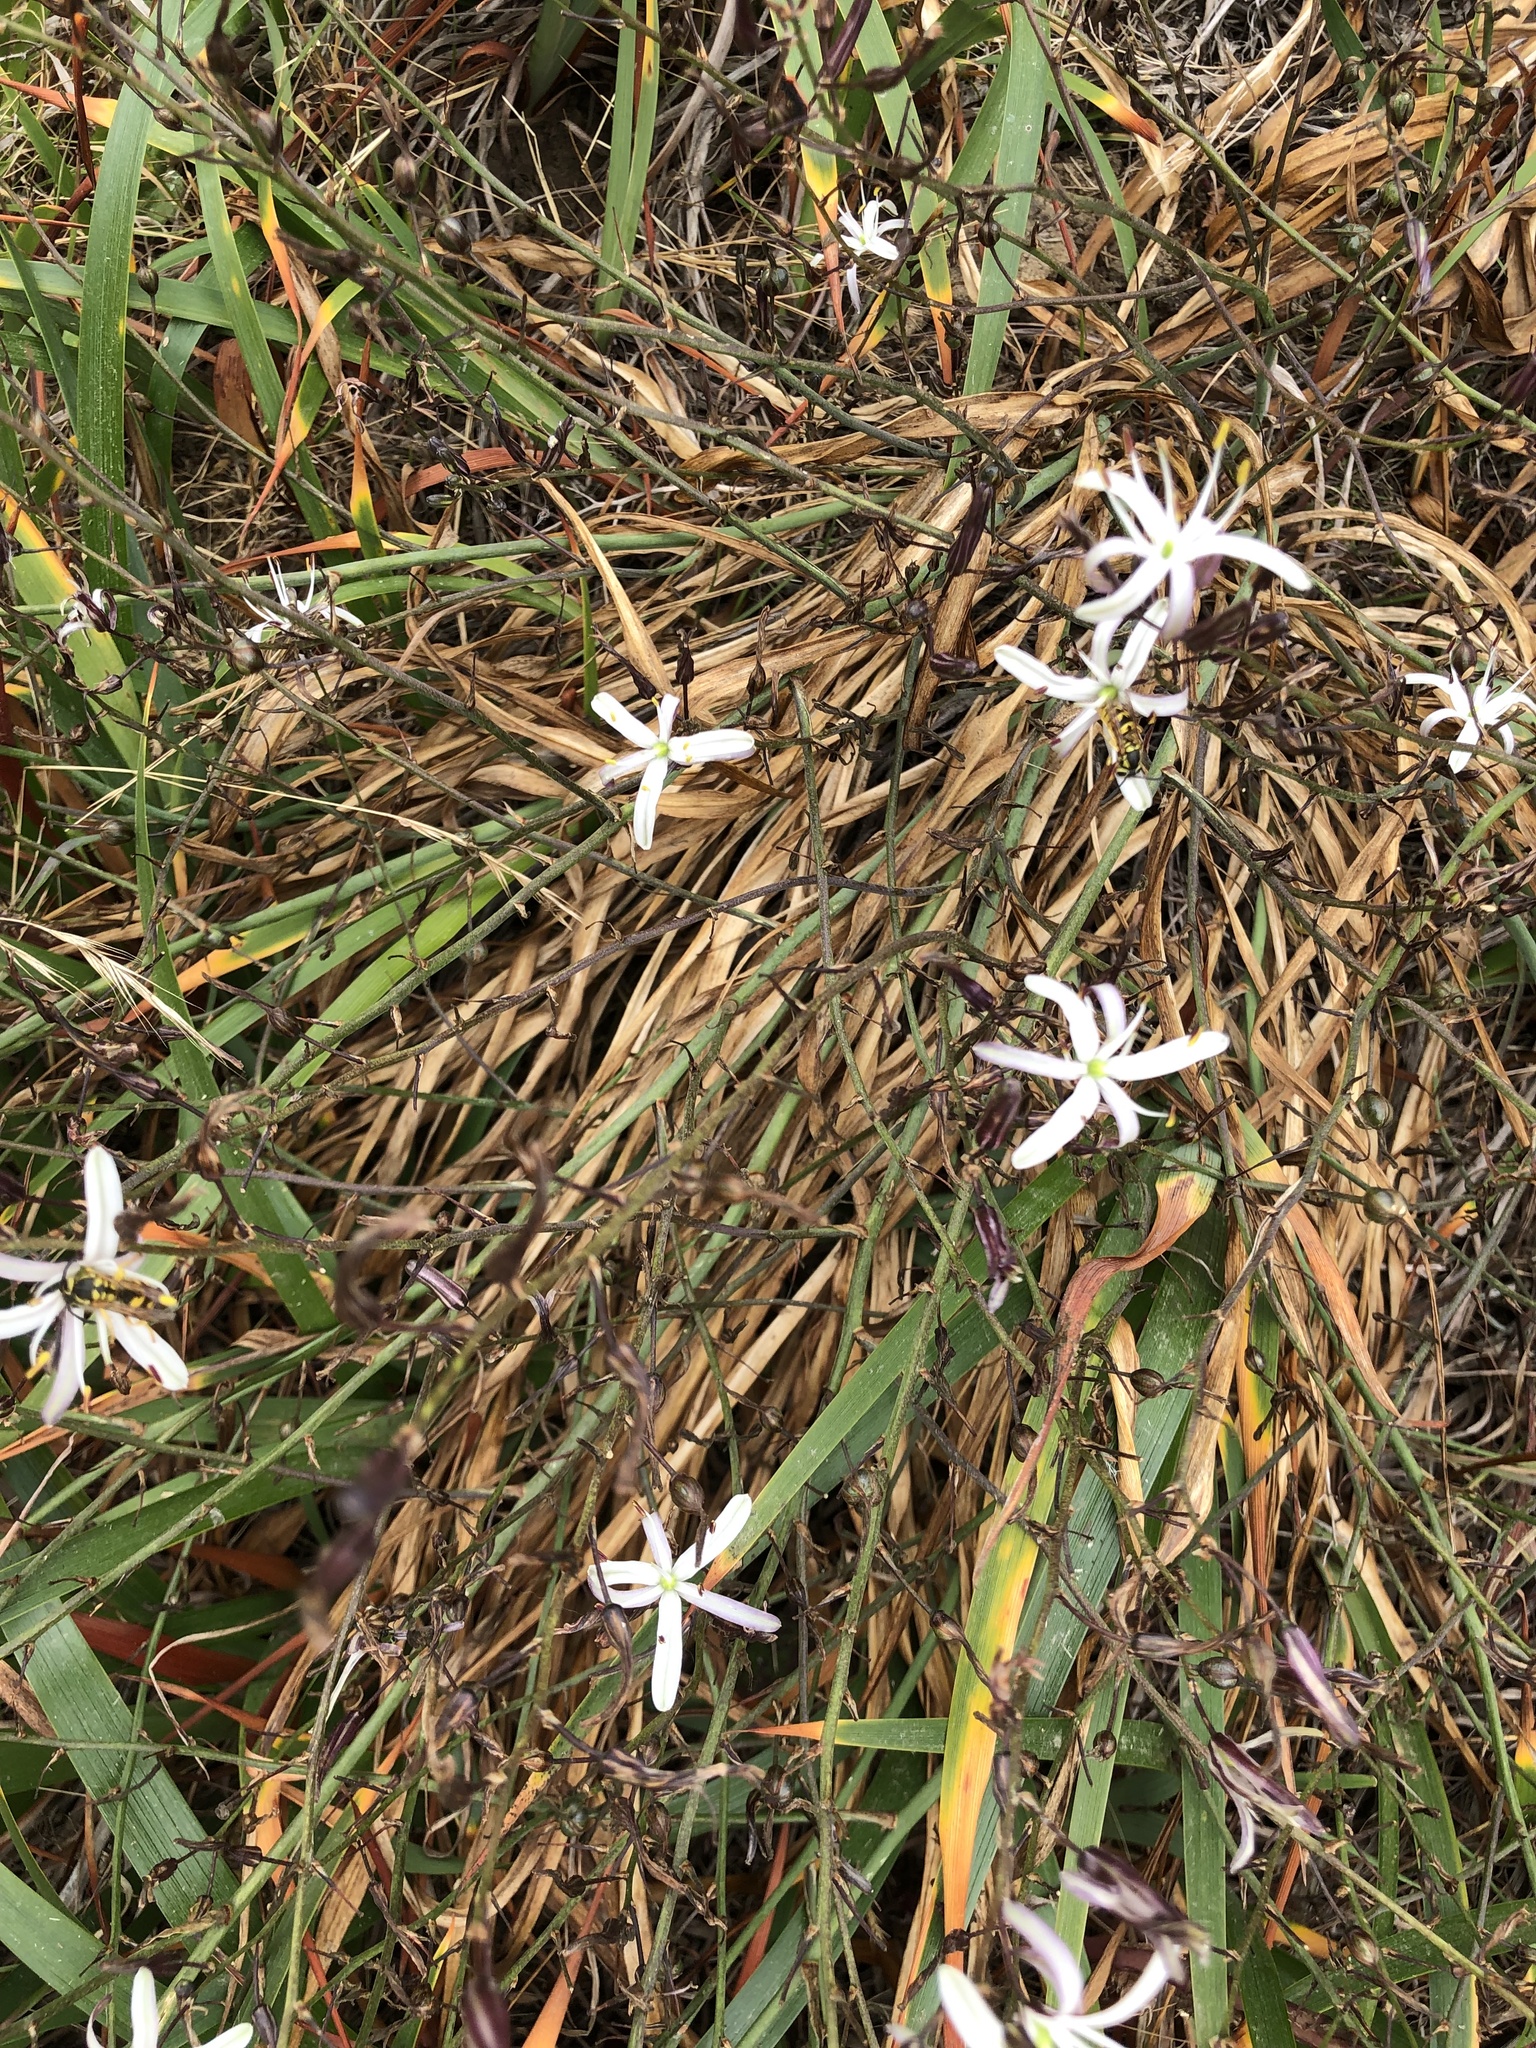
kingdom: Plantae
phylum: Tracheophyta
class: Liliopsida
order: Asparagales
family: Asparagaceae
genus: Chlorogalum
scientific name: Chlorogalum pomeridianum
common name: Amole
